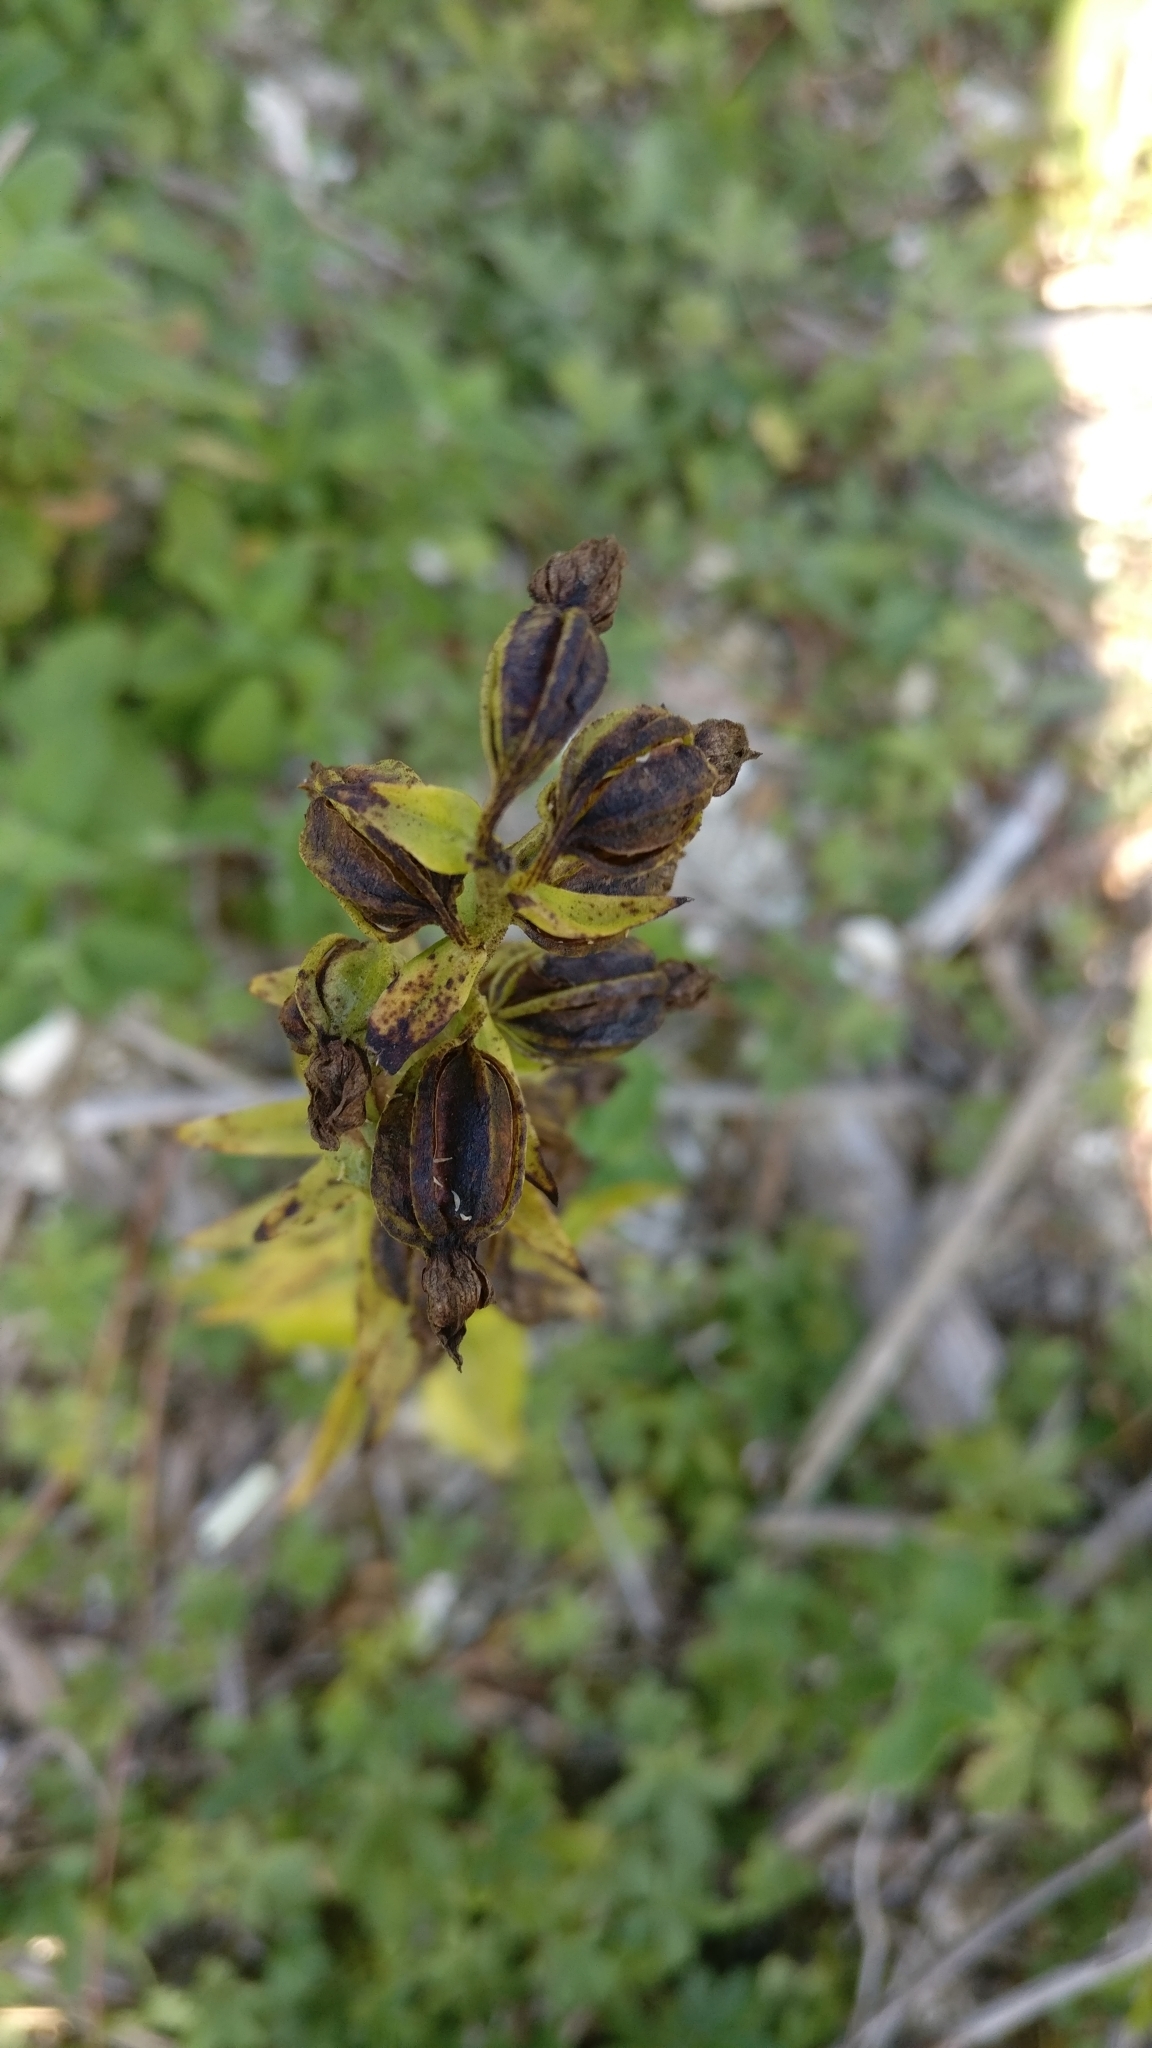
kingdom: Plantae
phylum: Tracheophyta
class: Liliopsida
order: Asparagales
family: Orchidaceae
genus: Epipactis
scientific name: Epipactis helleborine
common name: Broad-leaved helleborine
